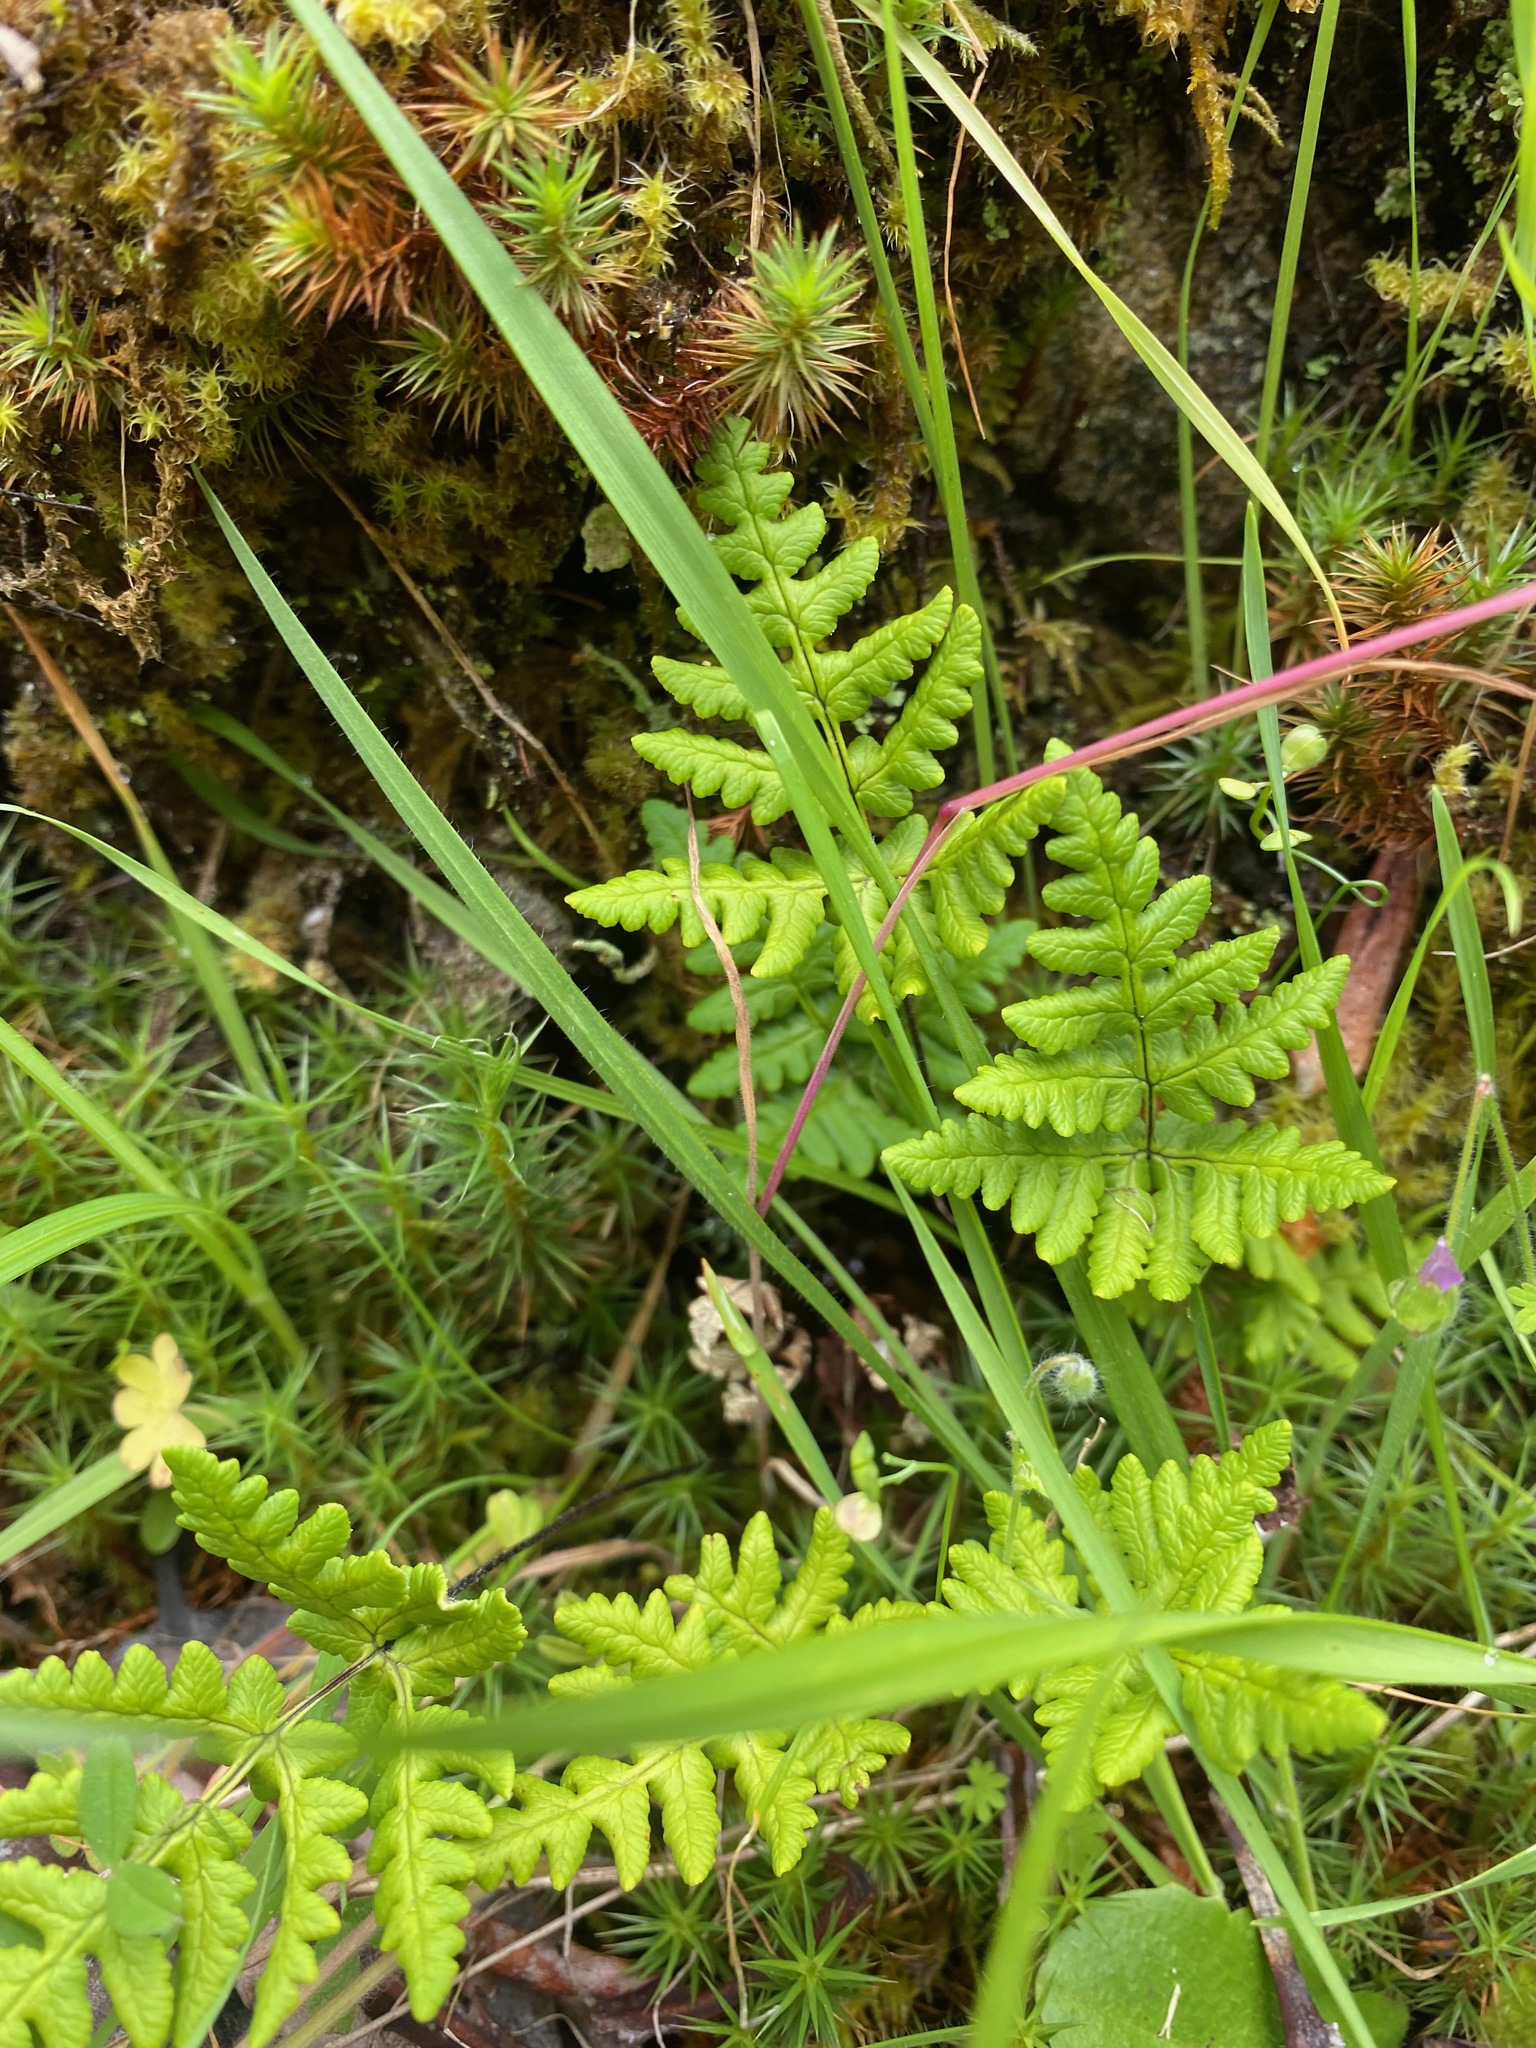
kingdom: Plantae
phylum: Tracheophyta
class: Polypodiopsida
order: Polypodiales
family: Pteridaceae
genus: Pentagramma
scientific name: Pentagramma triangularis
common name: Gold fern
